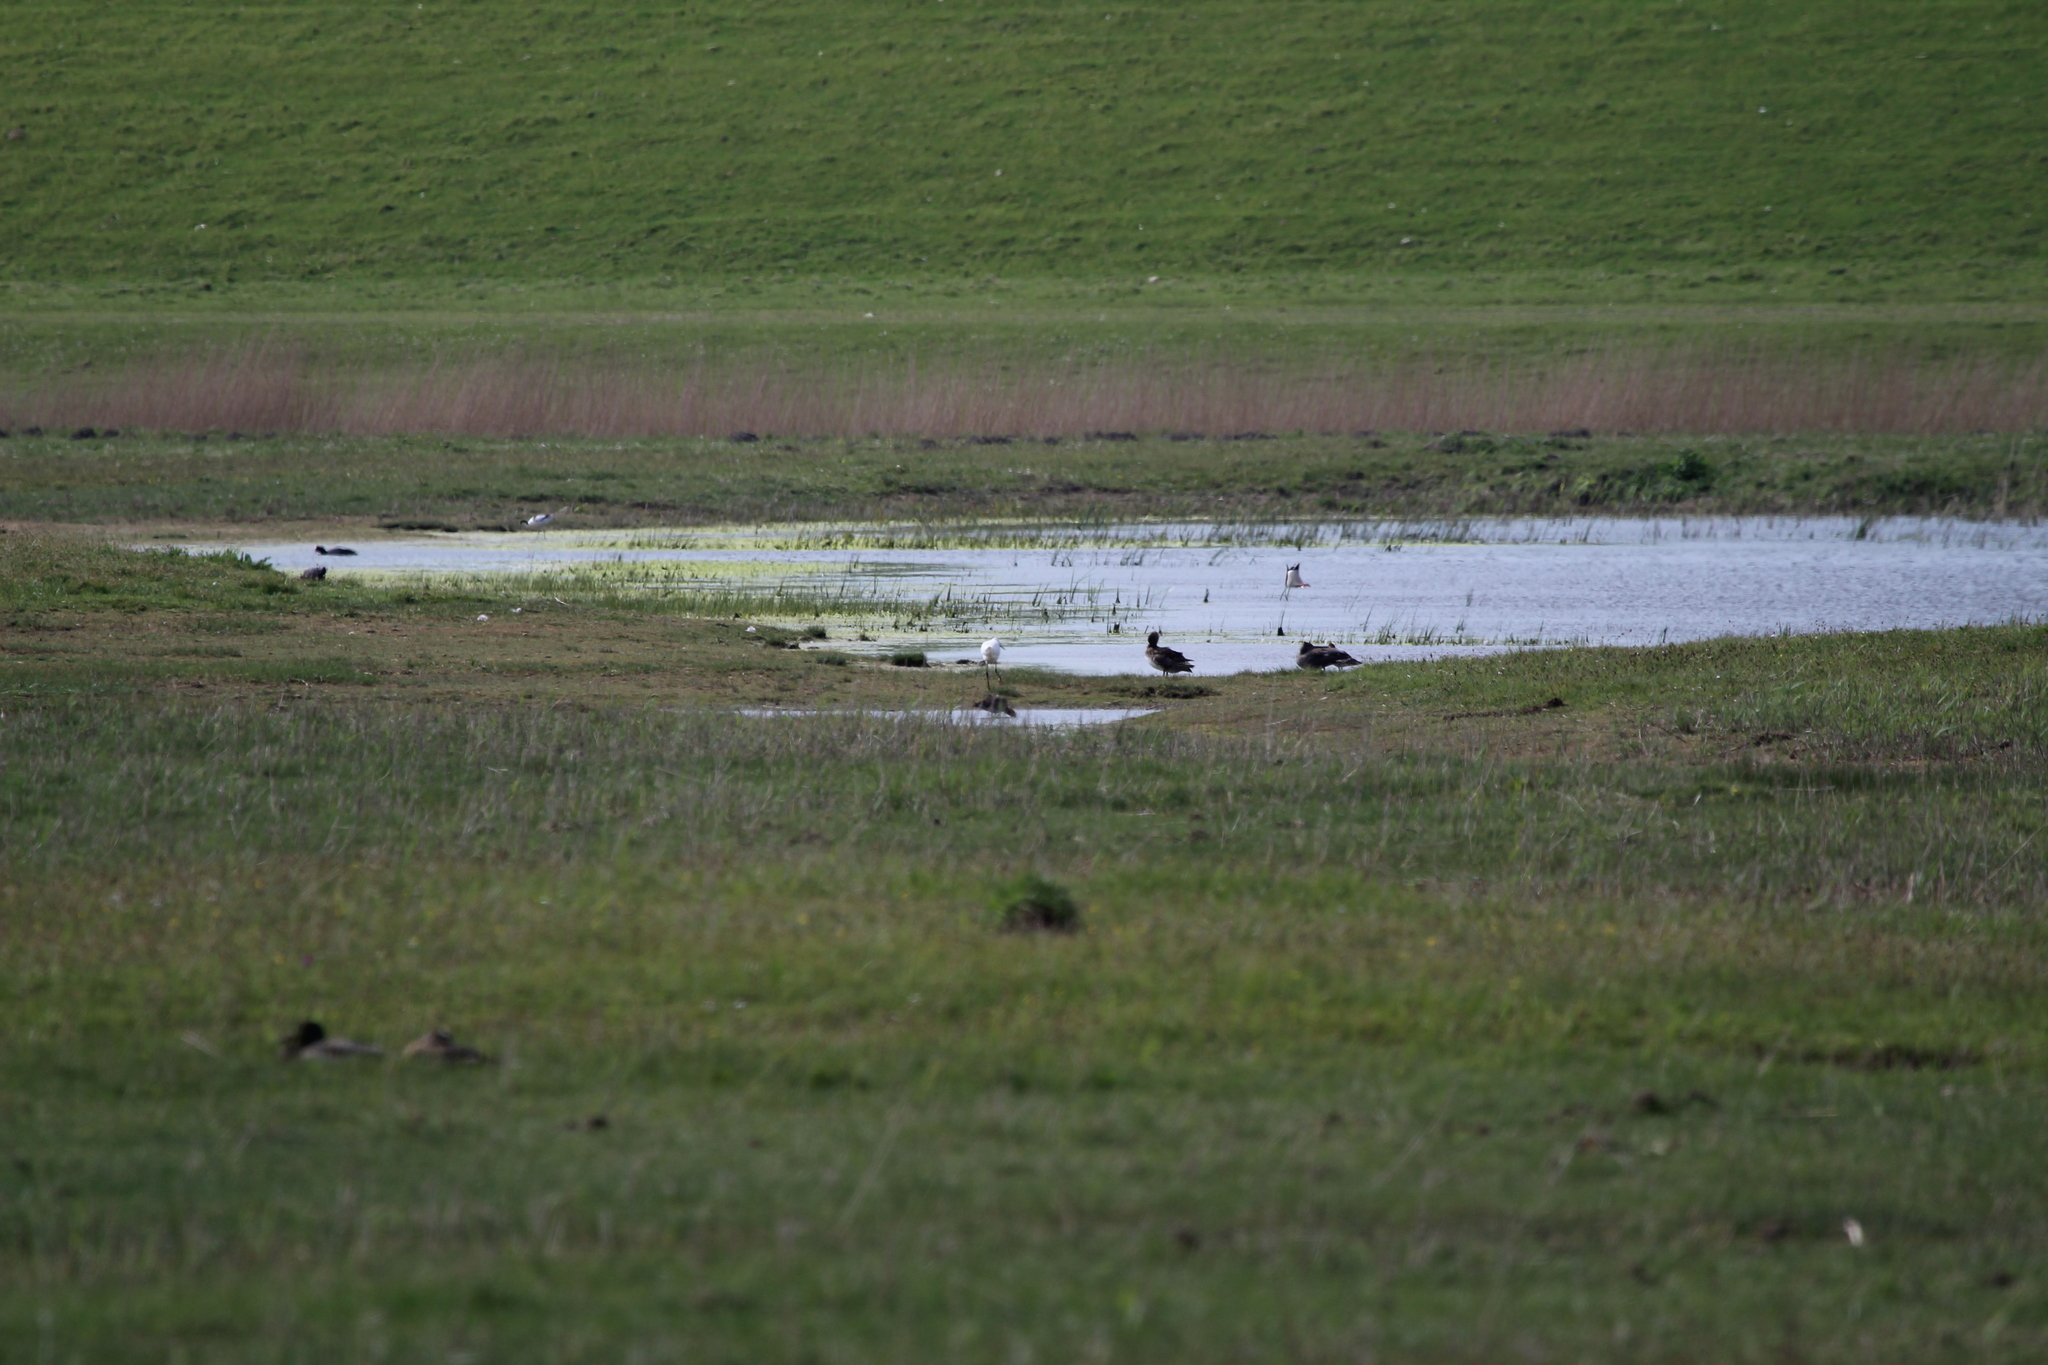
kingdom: Animalia
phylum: Chordata
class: Aves
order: Pelecaniformes
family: Ardeidae
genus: Egretta
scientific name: Egretta garzetta
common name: Little egret
